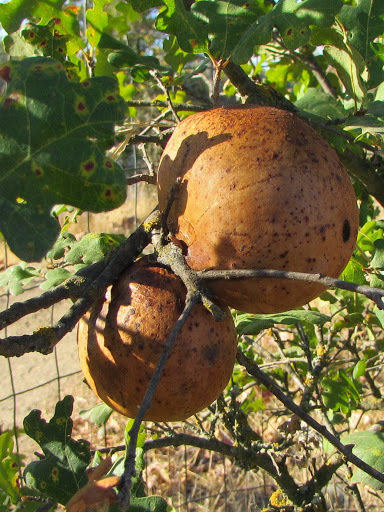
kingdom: Animalia
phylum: Arthropoda
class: Insecta
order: Hymenoptera
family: Cynipidae
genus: Andricus
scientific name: Andricus quercuscalifornicus
